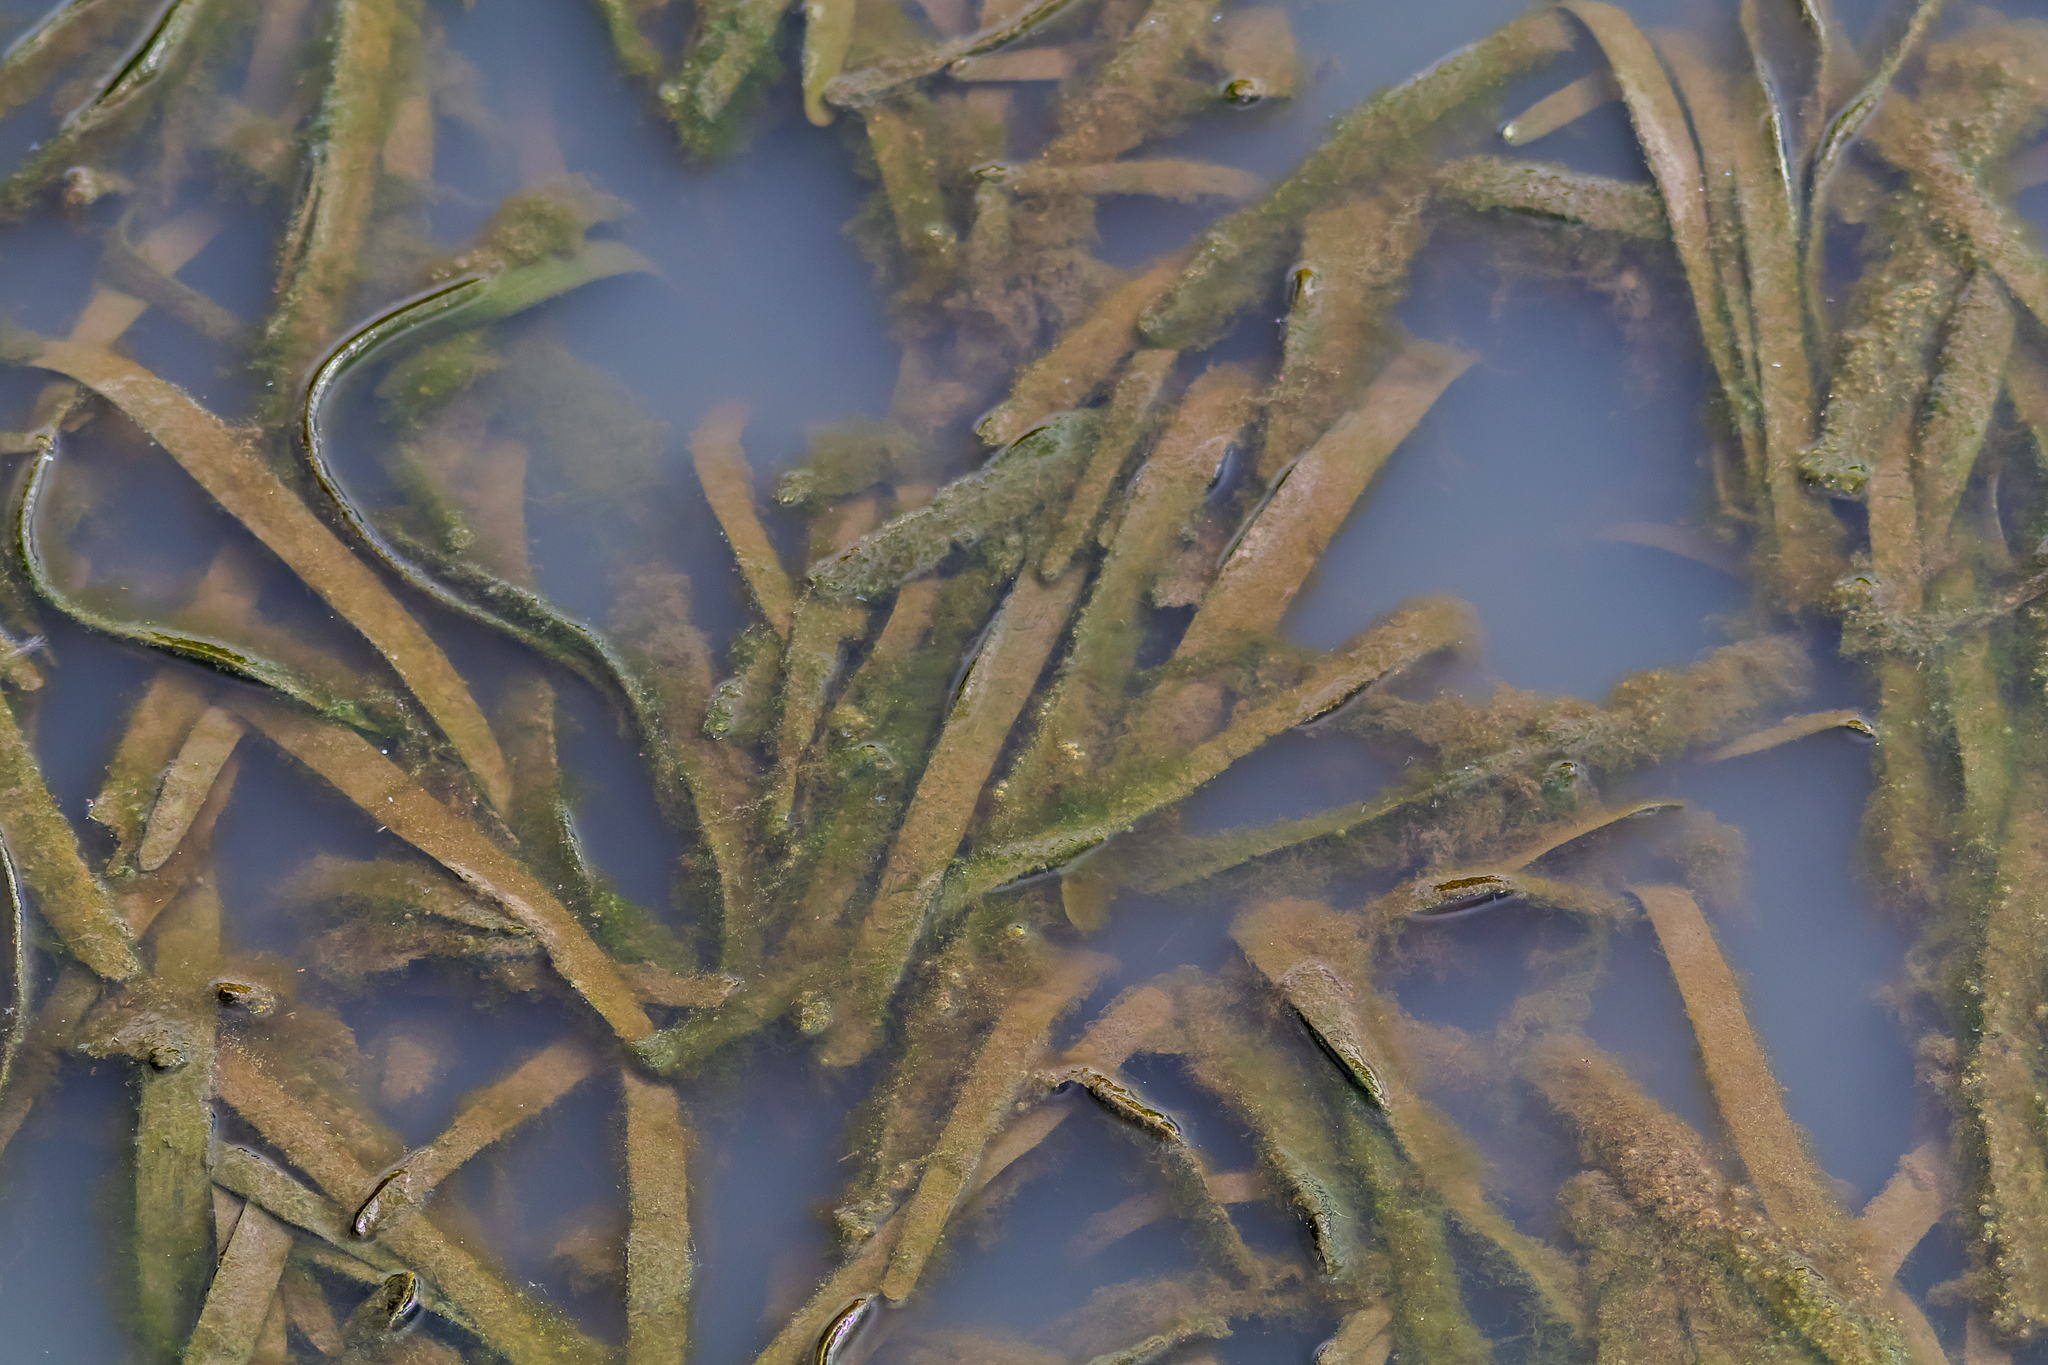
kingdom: Plantae
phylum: Tracheophyta
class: Liliopsida
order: Alismatales
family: Hydrocharitaceae
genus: Vallisneria
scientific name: Vallisneria australis
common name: Australian eelgrass
